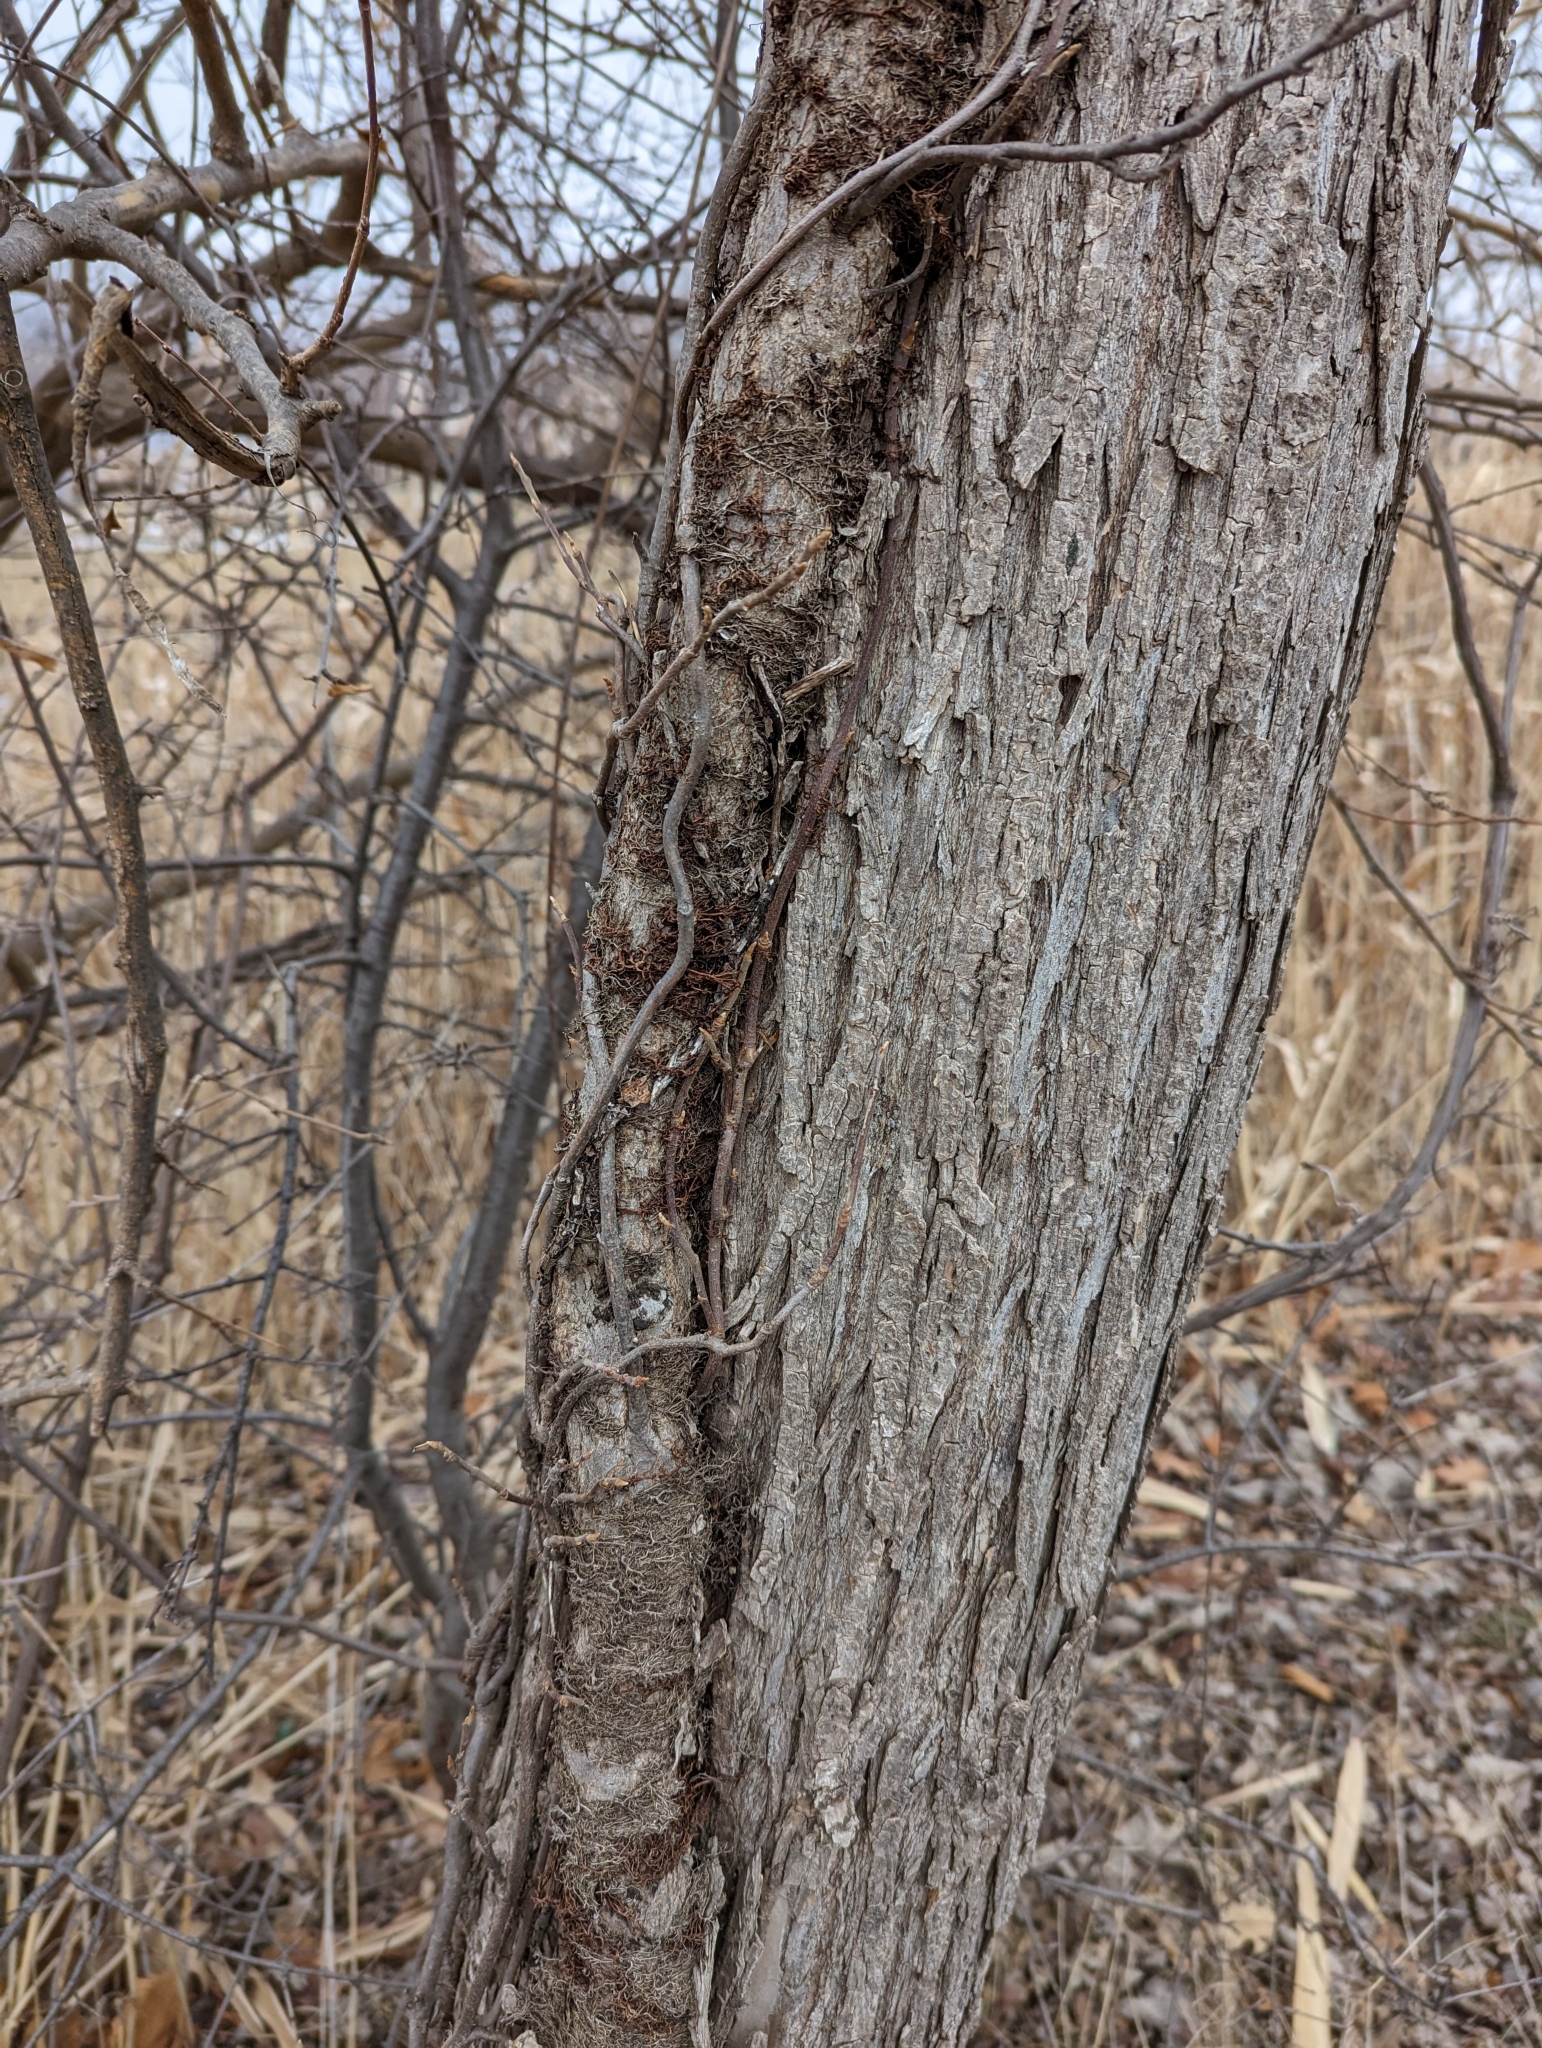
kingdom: Plantae
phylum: Tracheophyta
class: Magnoliopsida
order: Sapindales
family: Anacardiaceae
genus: Toxicodendron
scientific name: Toxicodendron radicans
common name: Poison ivy
